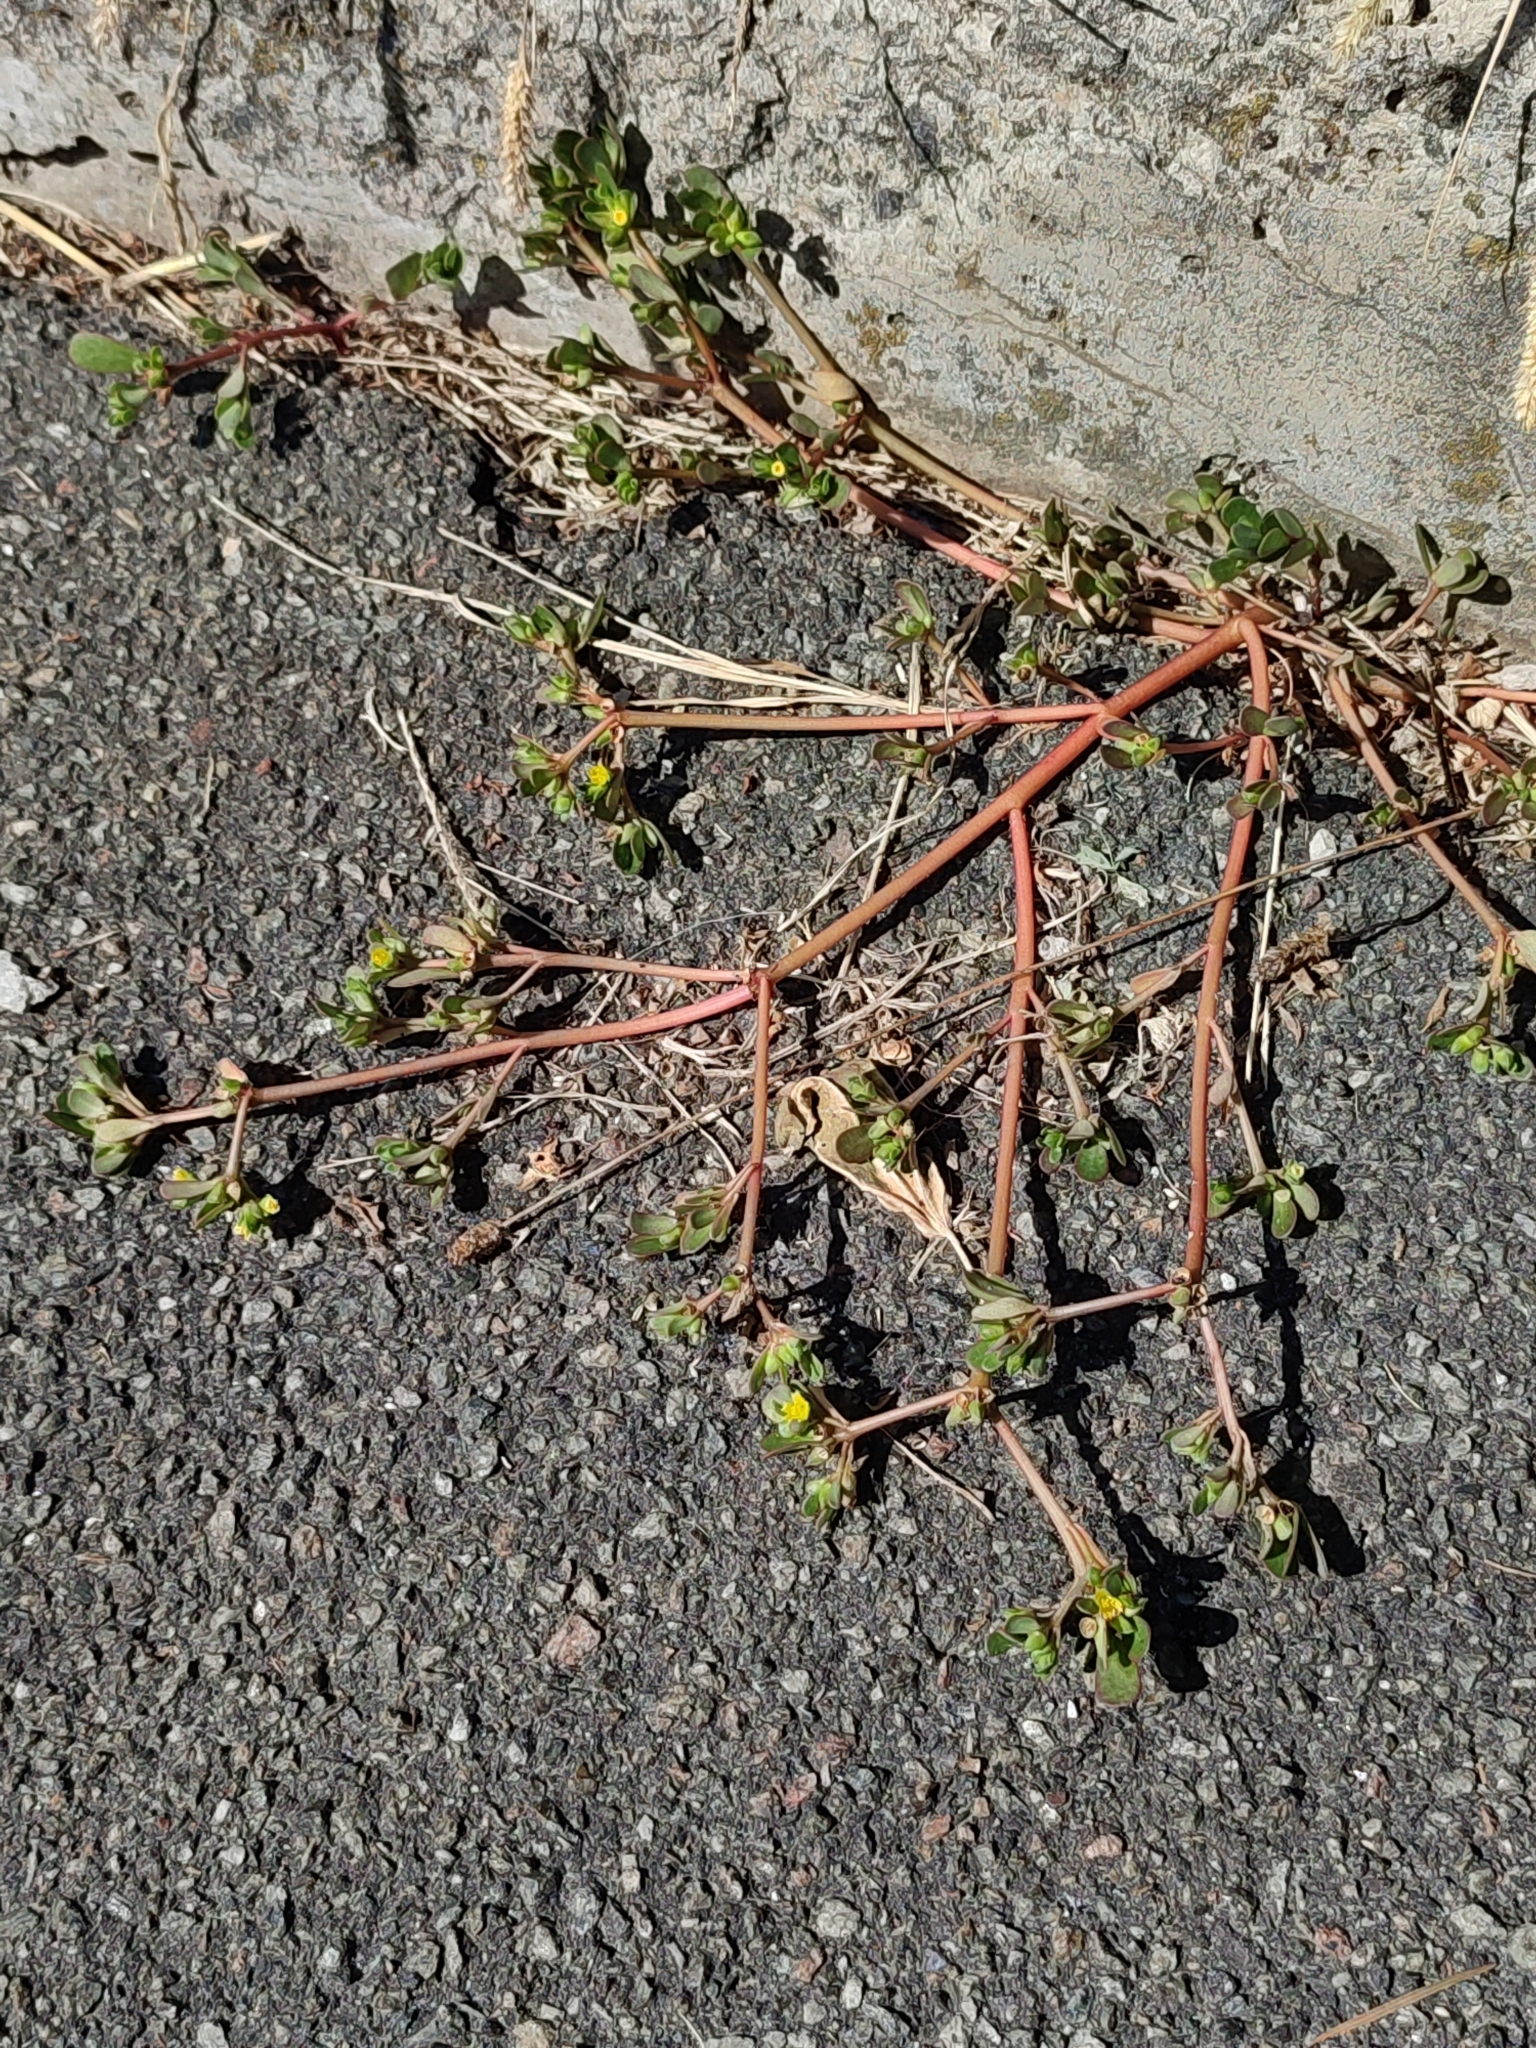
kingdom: Plantae
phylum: Tracheophyta
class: Magnoliopsida
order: Caryophyllales
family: Portulacaceae
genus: Portulaca
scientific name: Portulaca oleracea
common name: Common purslane
